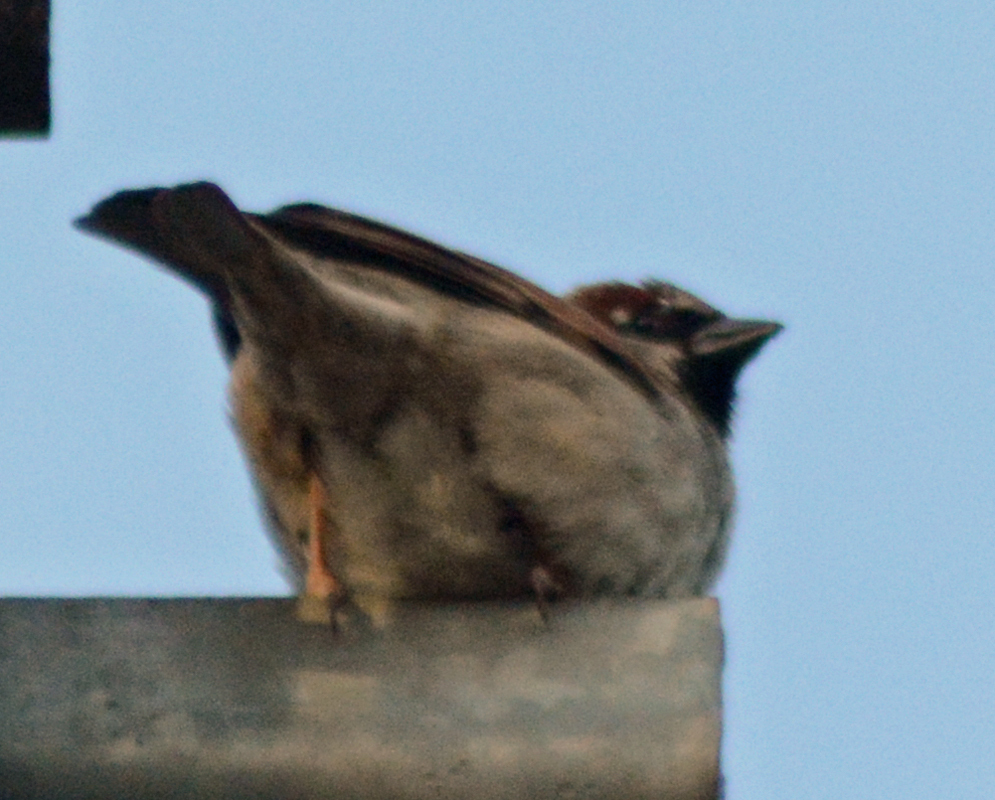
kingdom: Animalia
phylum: Chordata
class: Aves
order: Passeriformes
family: Passeridae
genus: Passer
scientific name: Passer domesticus
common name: House sparrow
